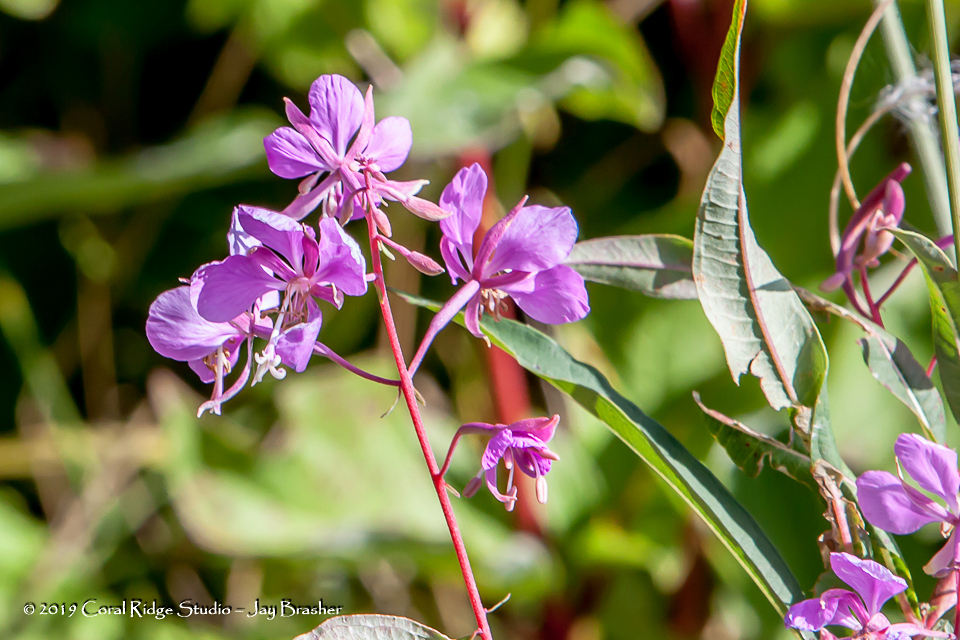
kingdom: Plantae
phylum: Tracheophyta
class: Magnoliopsida
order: Myrtales
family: Onagraceae
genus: Chamaenerion
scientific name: Chamaenerion angustifolium
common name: Fireweed
